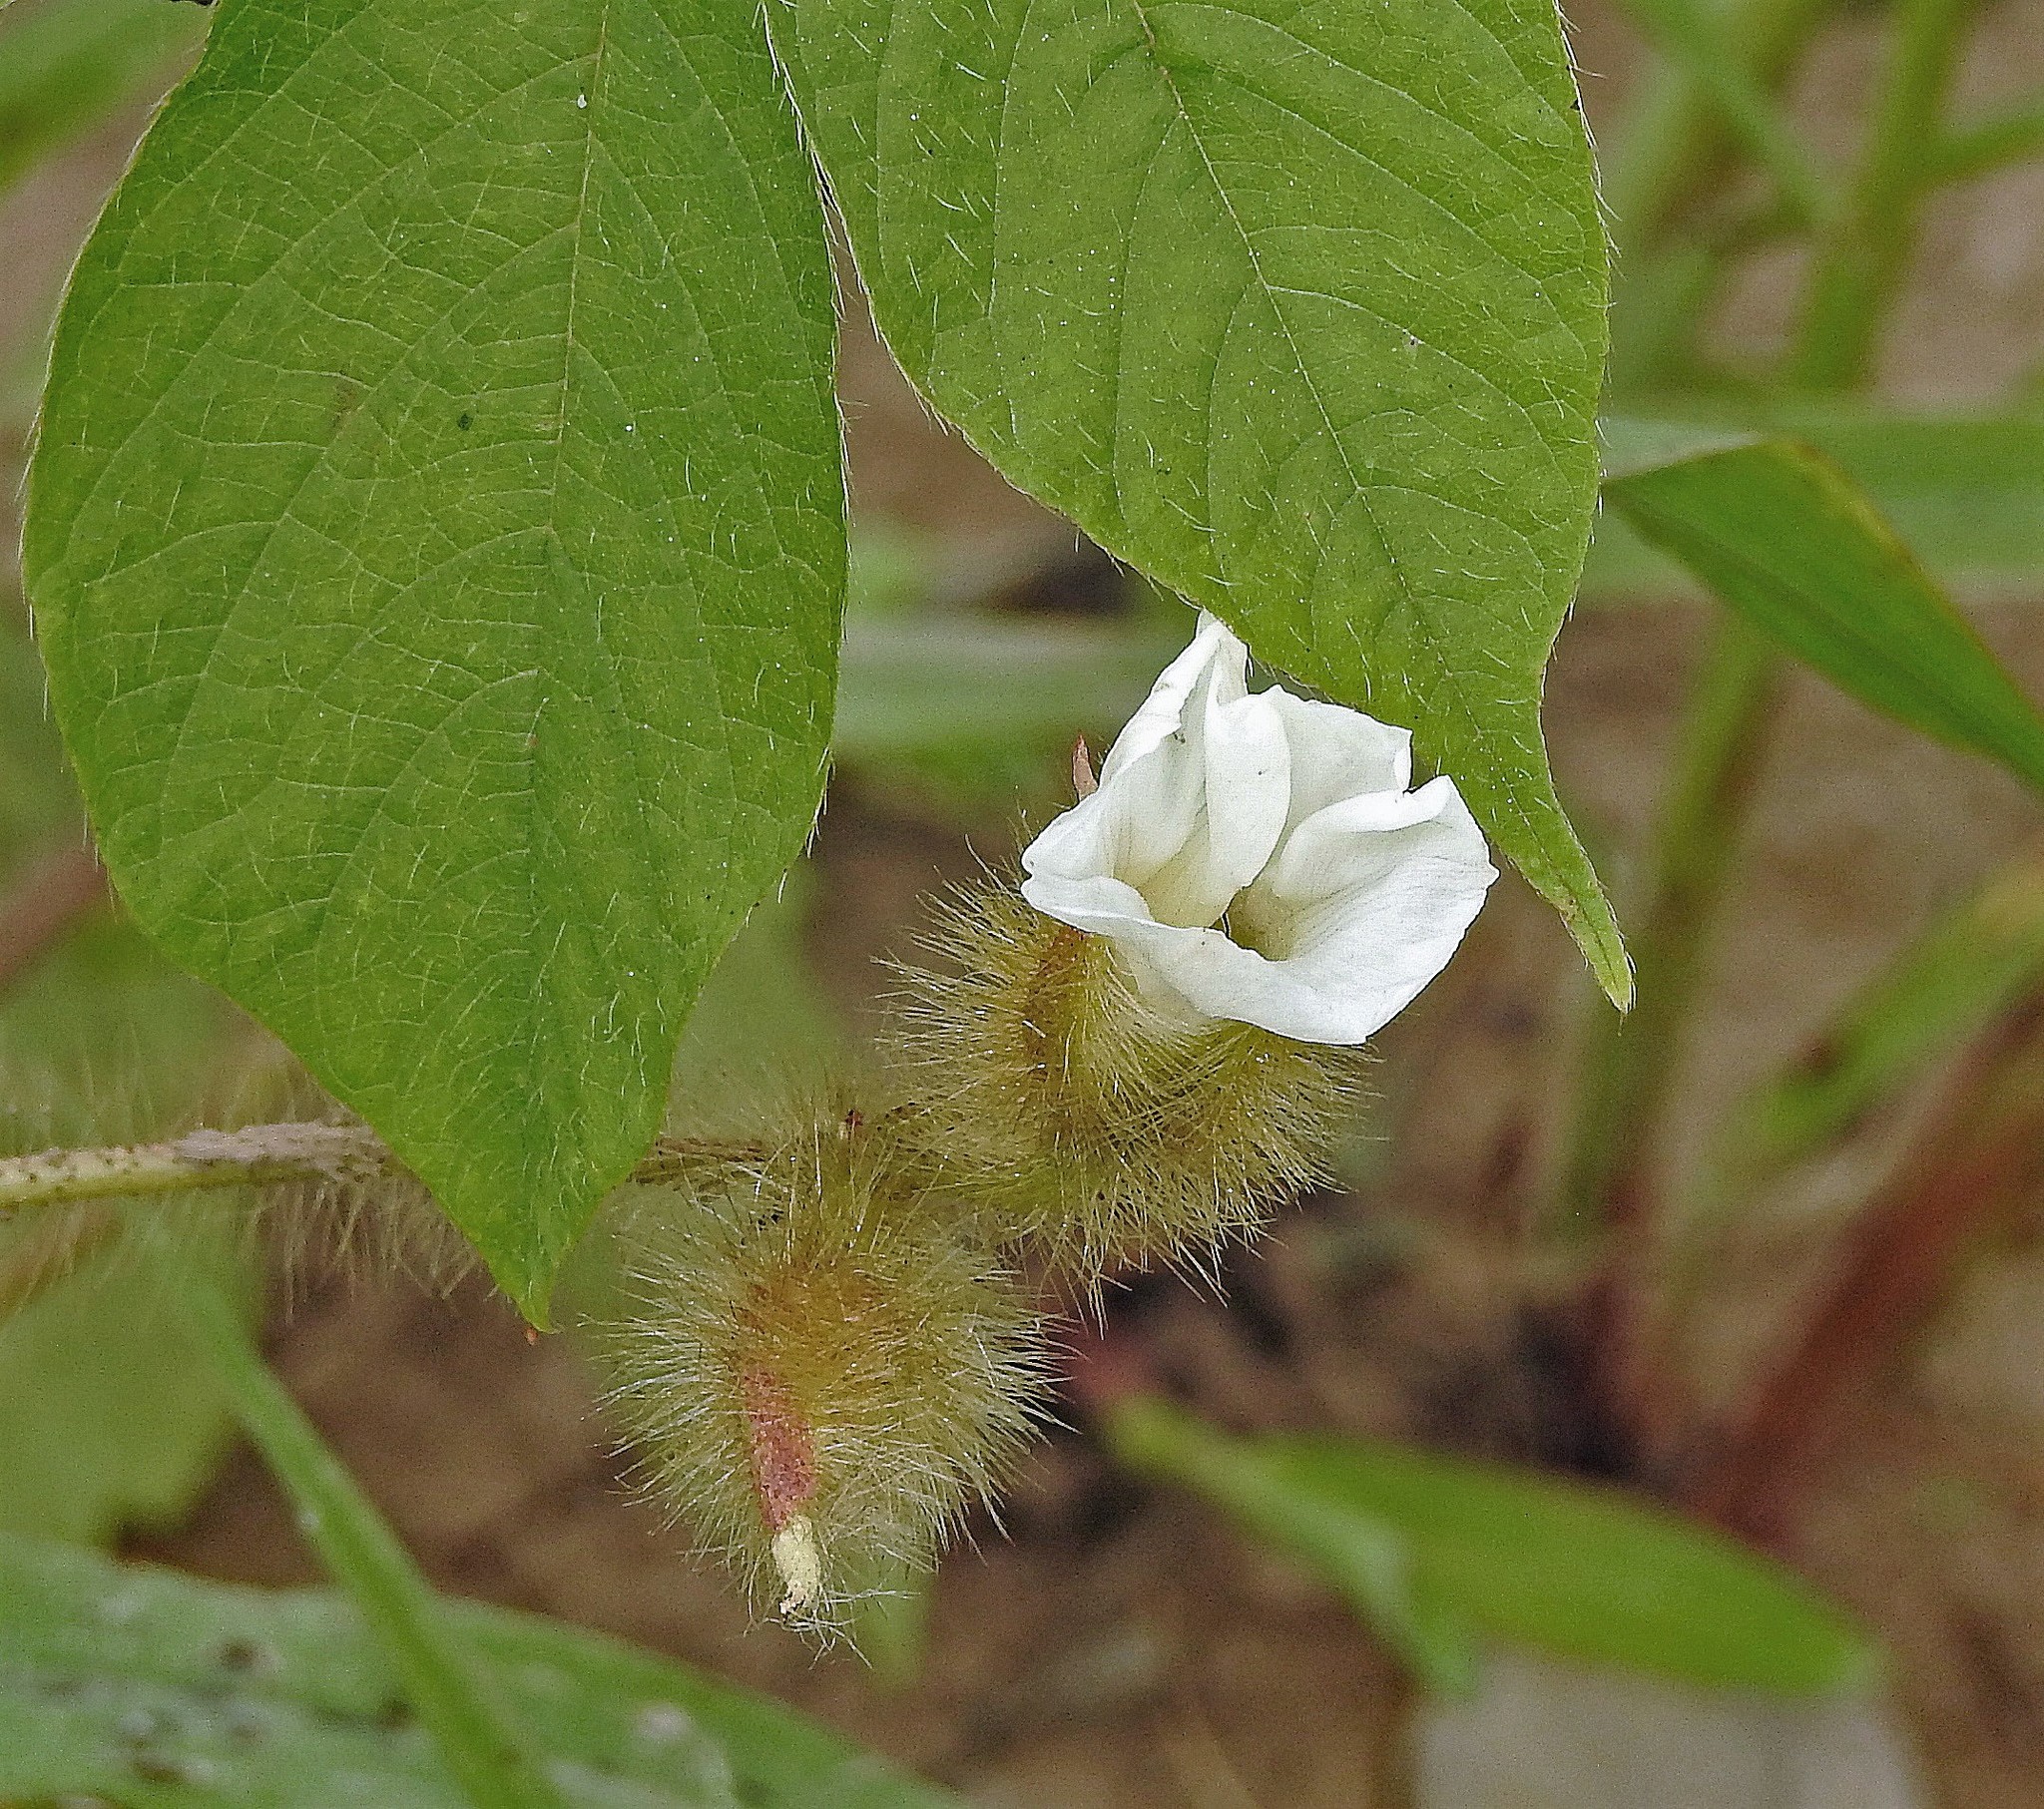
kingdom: Plantae
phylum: Tracheophyta
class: Magnoliopsida
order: Solanales
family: Convolvulaceae
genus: Distimake
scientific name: Distimake aegyptius
